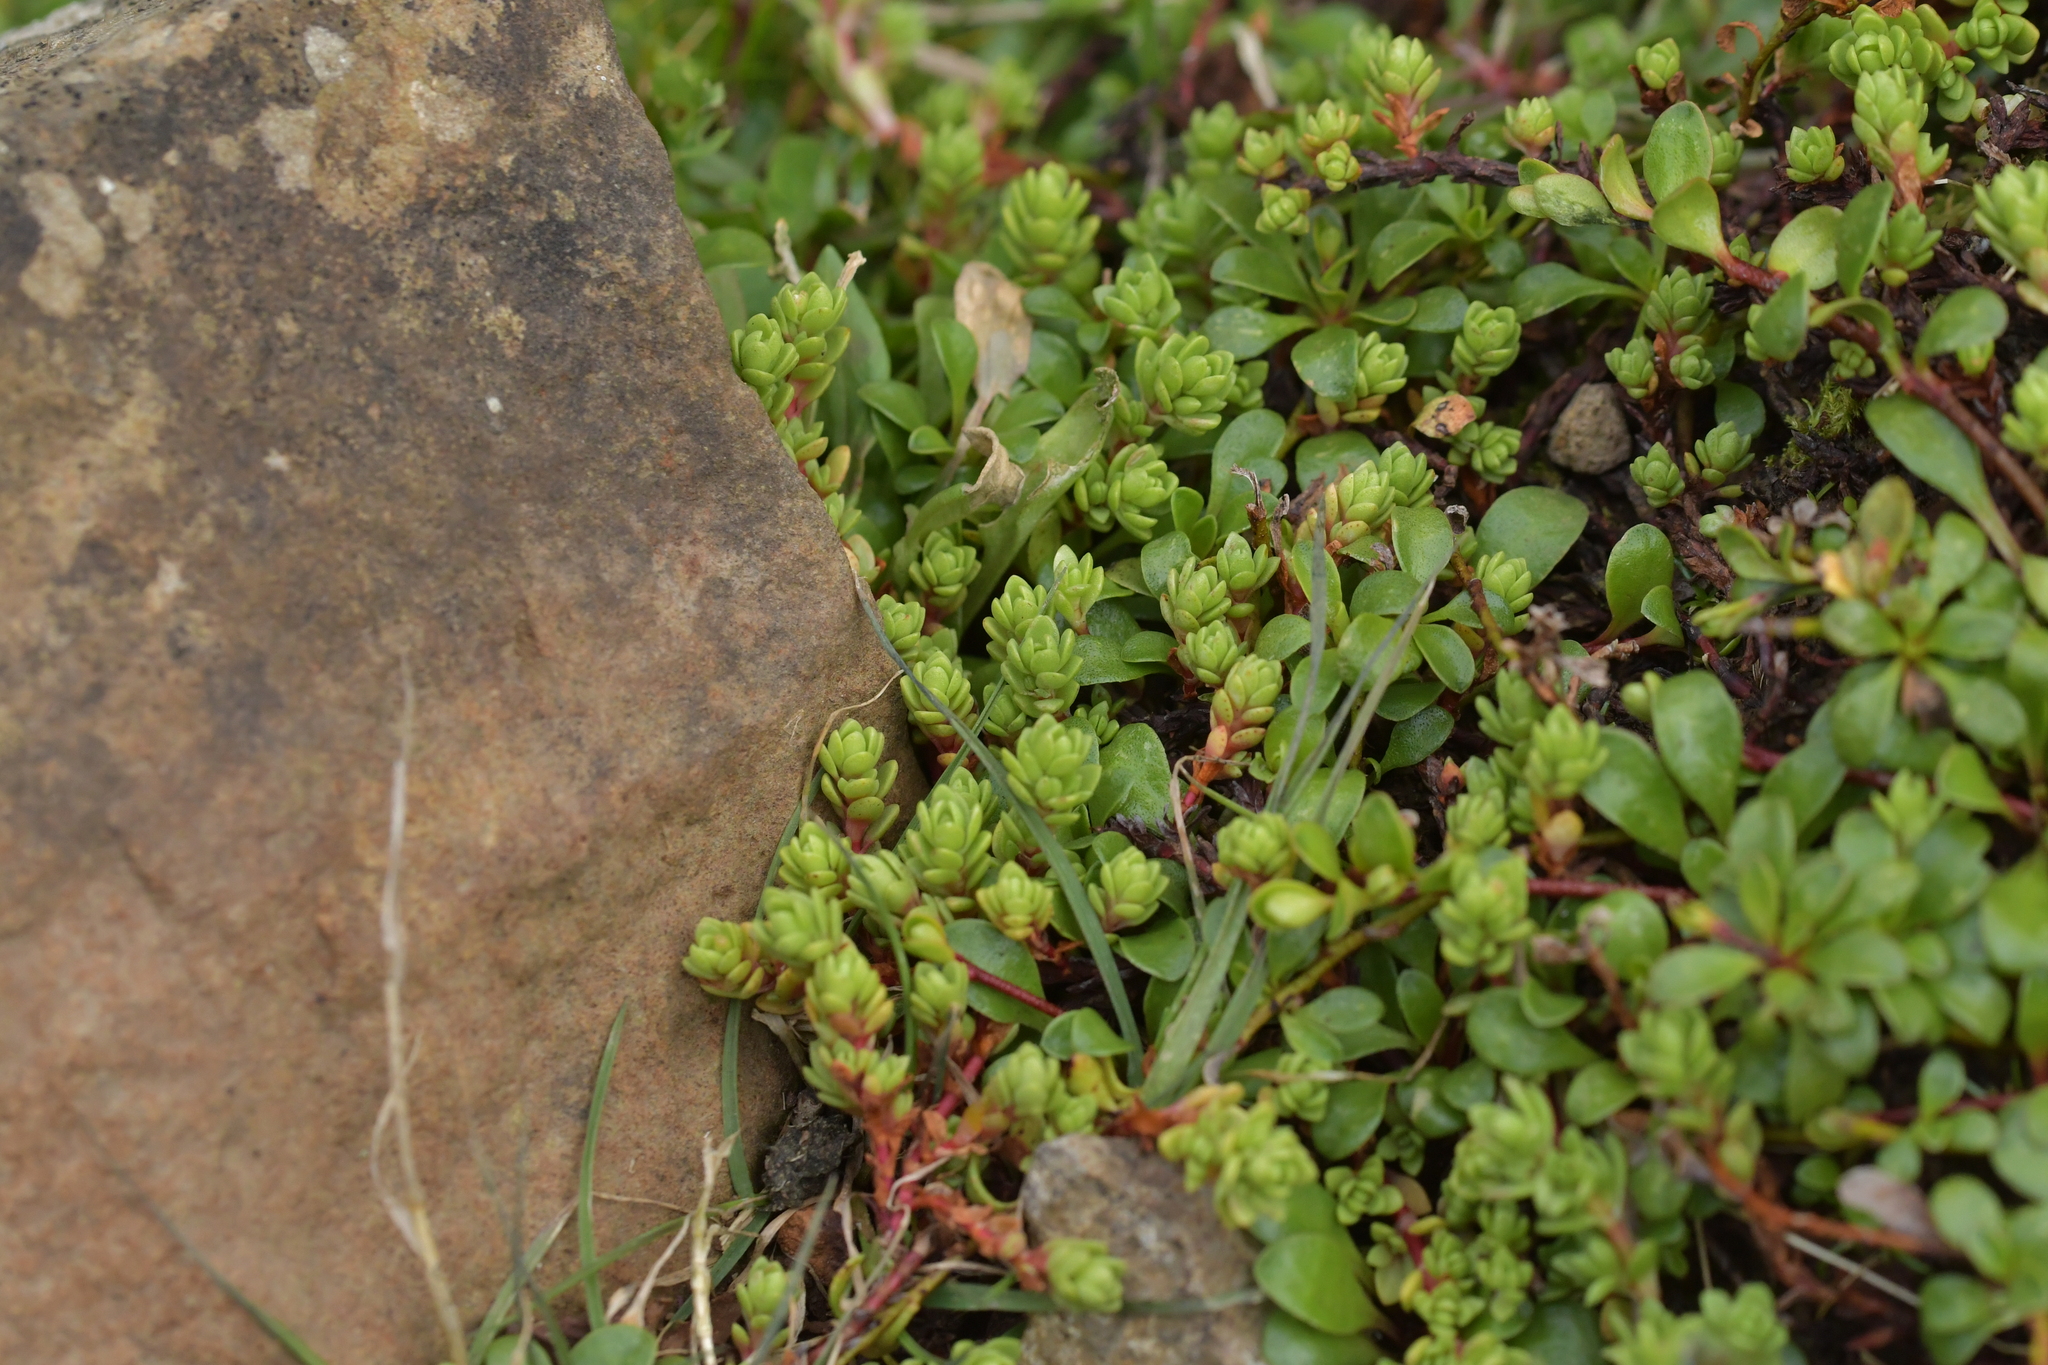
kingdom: Plantae
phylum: Tracheophyta
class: Magnoliopsida
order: Saxifragales
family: Crassulaceae
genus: Crassula
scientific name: Crassula moschata
